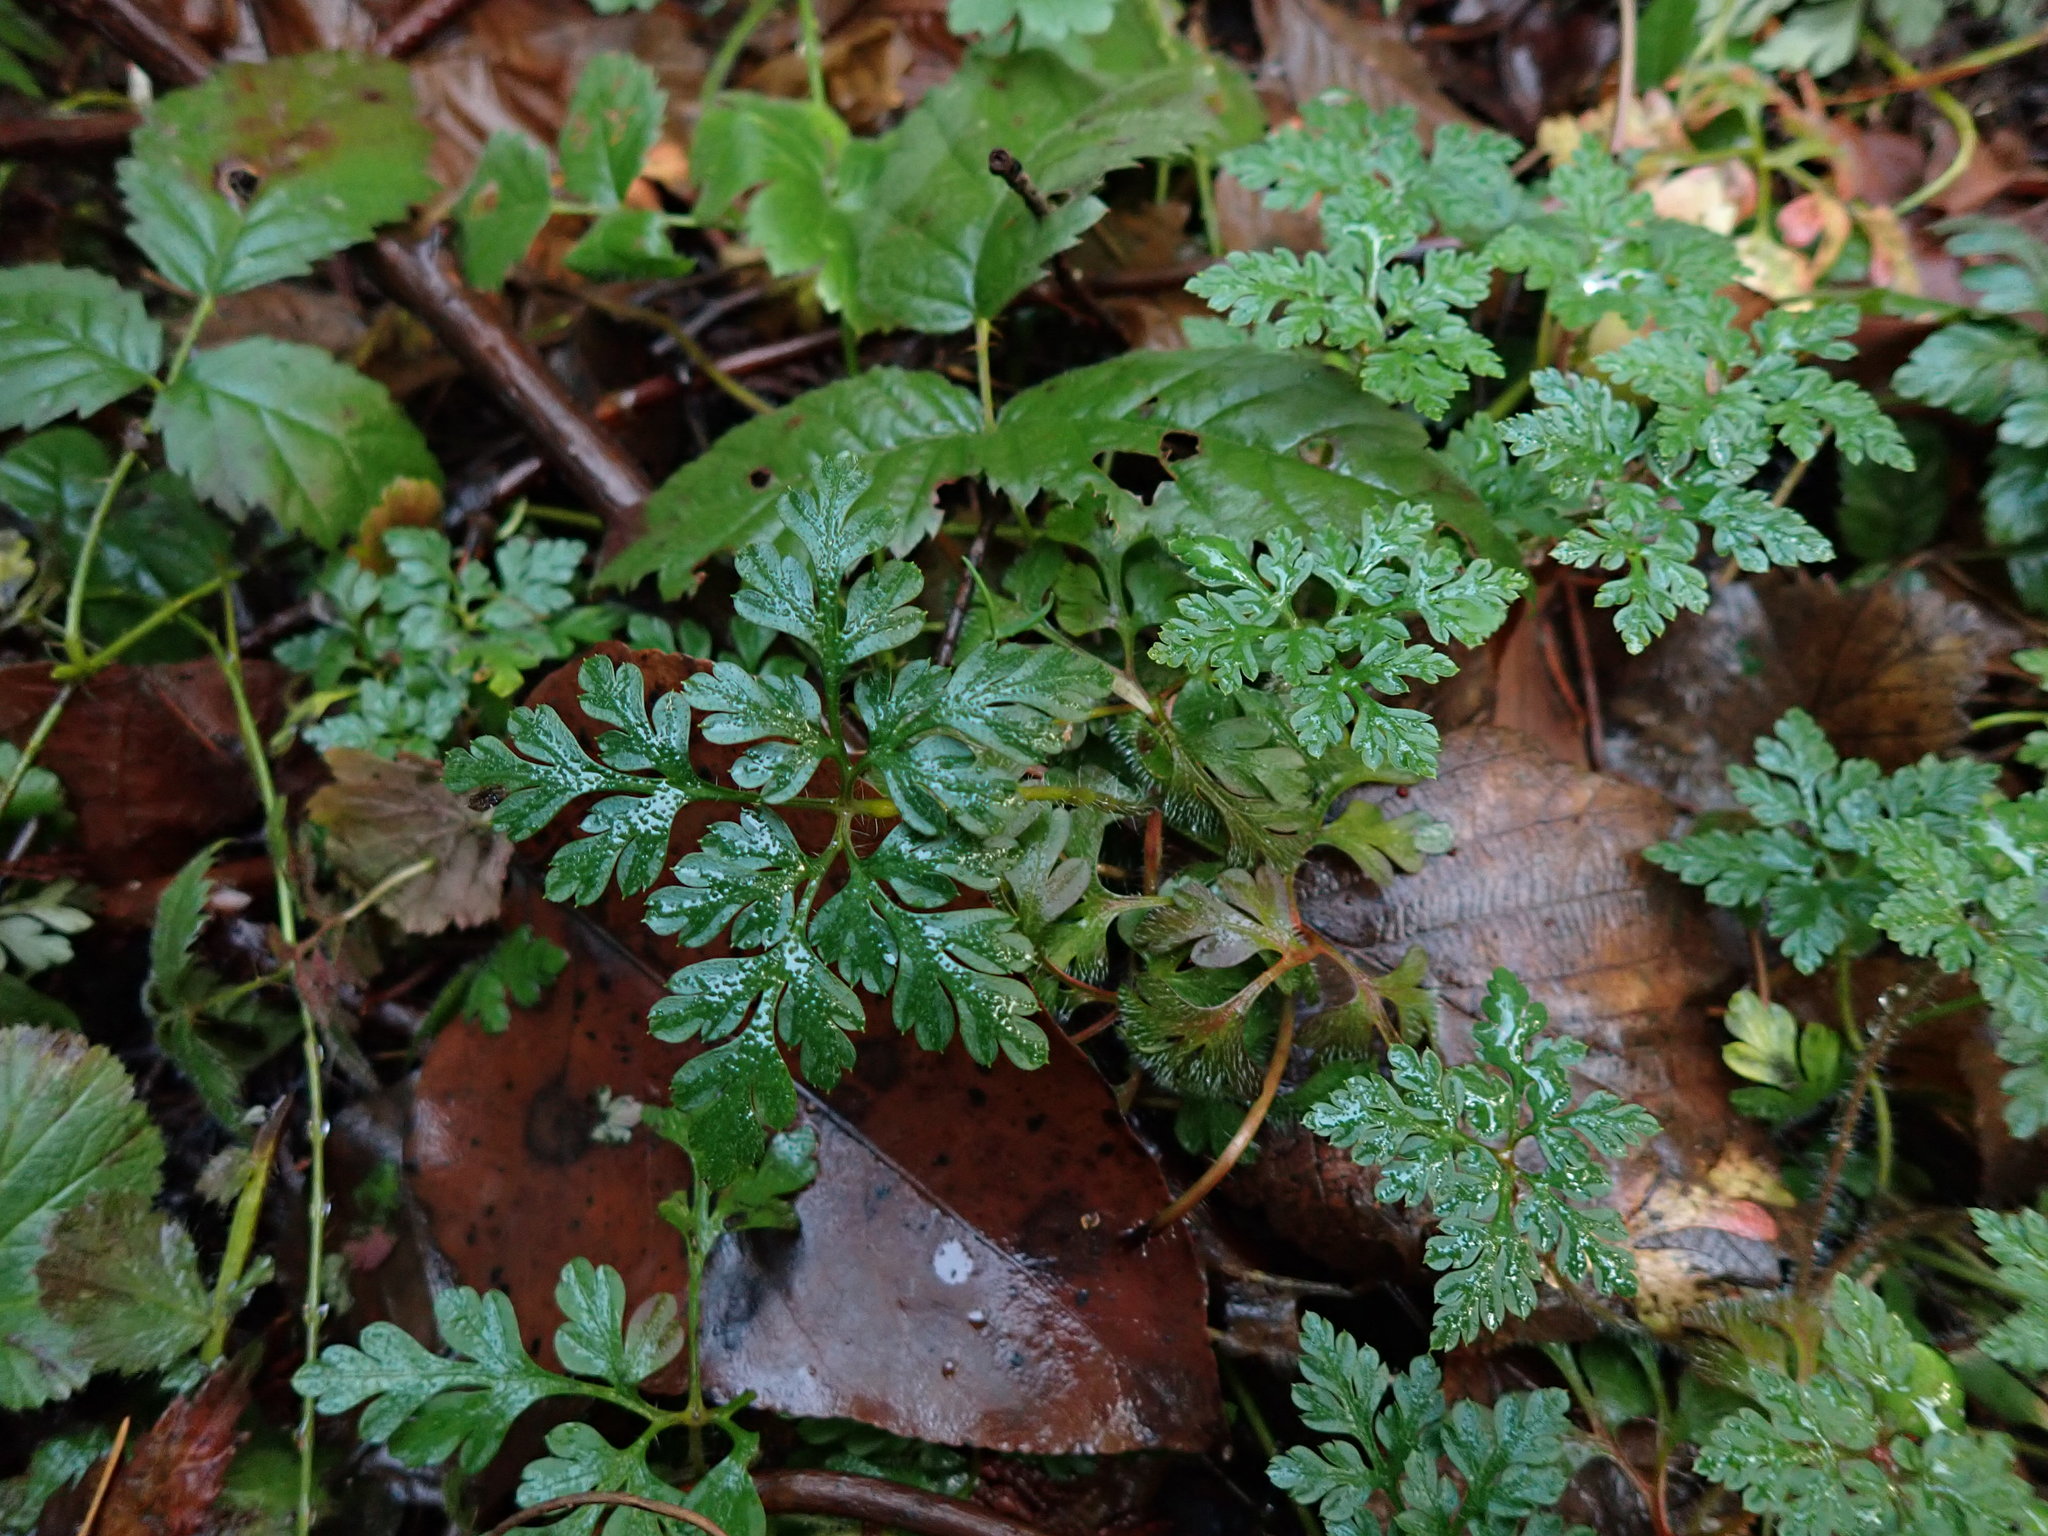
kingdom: Plantae
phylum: Tracheophyta
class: Magnoliopsida
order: Geraniales
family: Geraniaceae
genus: Geranium
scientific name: Geranium robertianum
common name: Herb-robert
